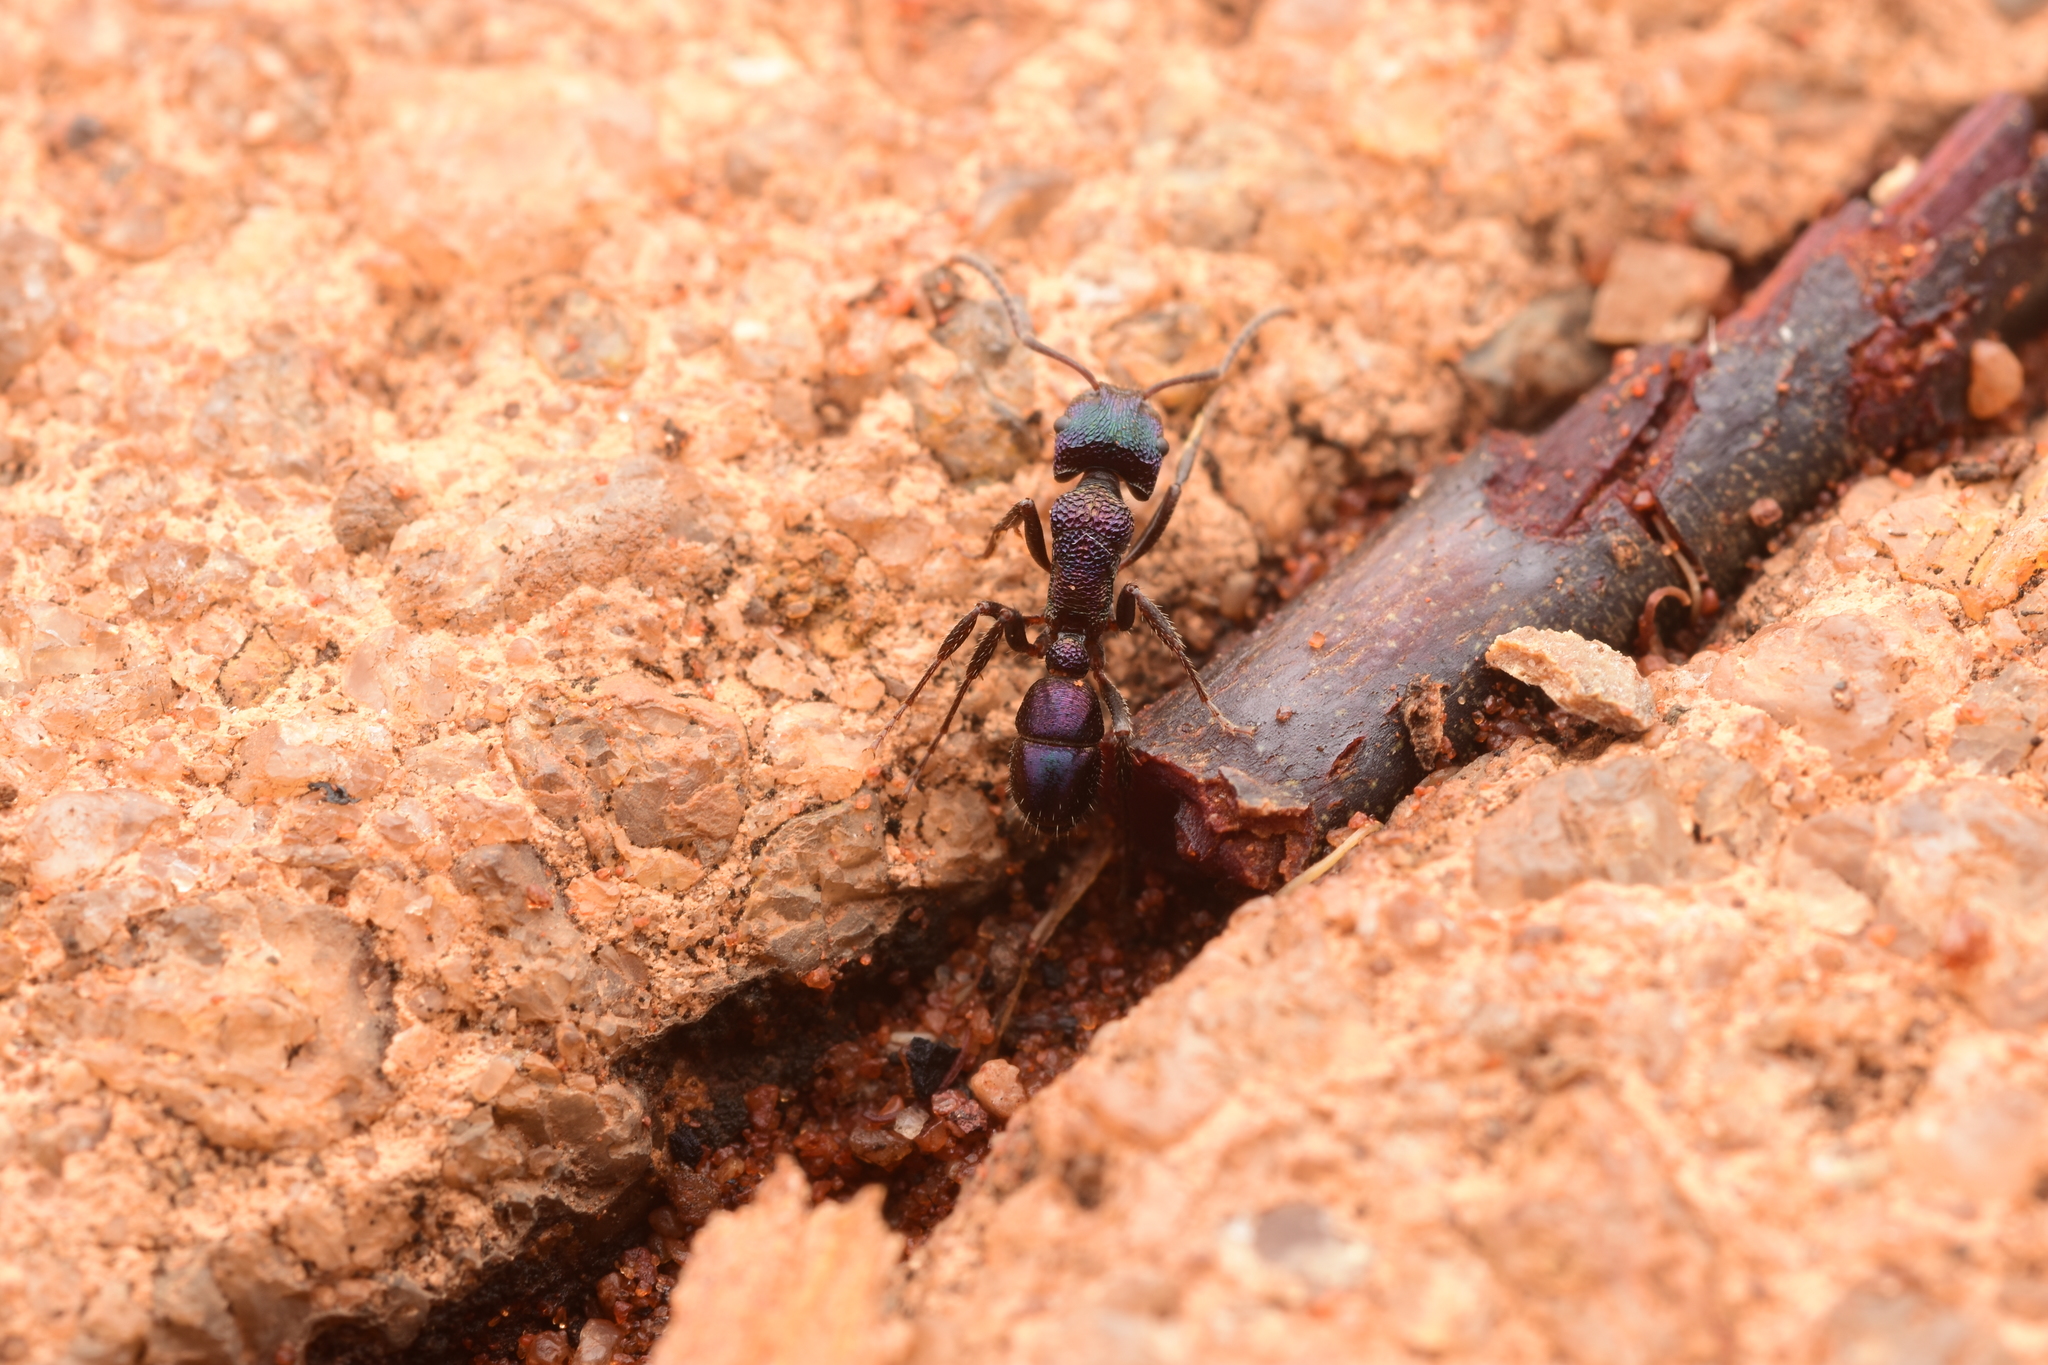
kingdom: Animalia
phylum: Arthropoda
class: Insecta
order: Hymenoptera
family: Formicidae
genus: Rhytidoponera
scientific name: Rhytidoponera metallica
